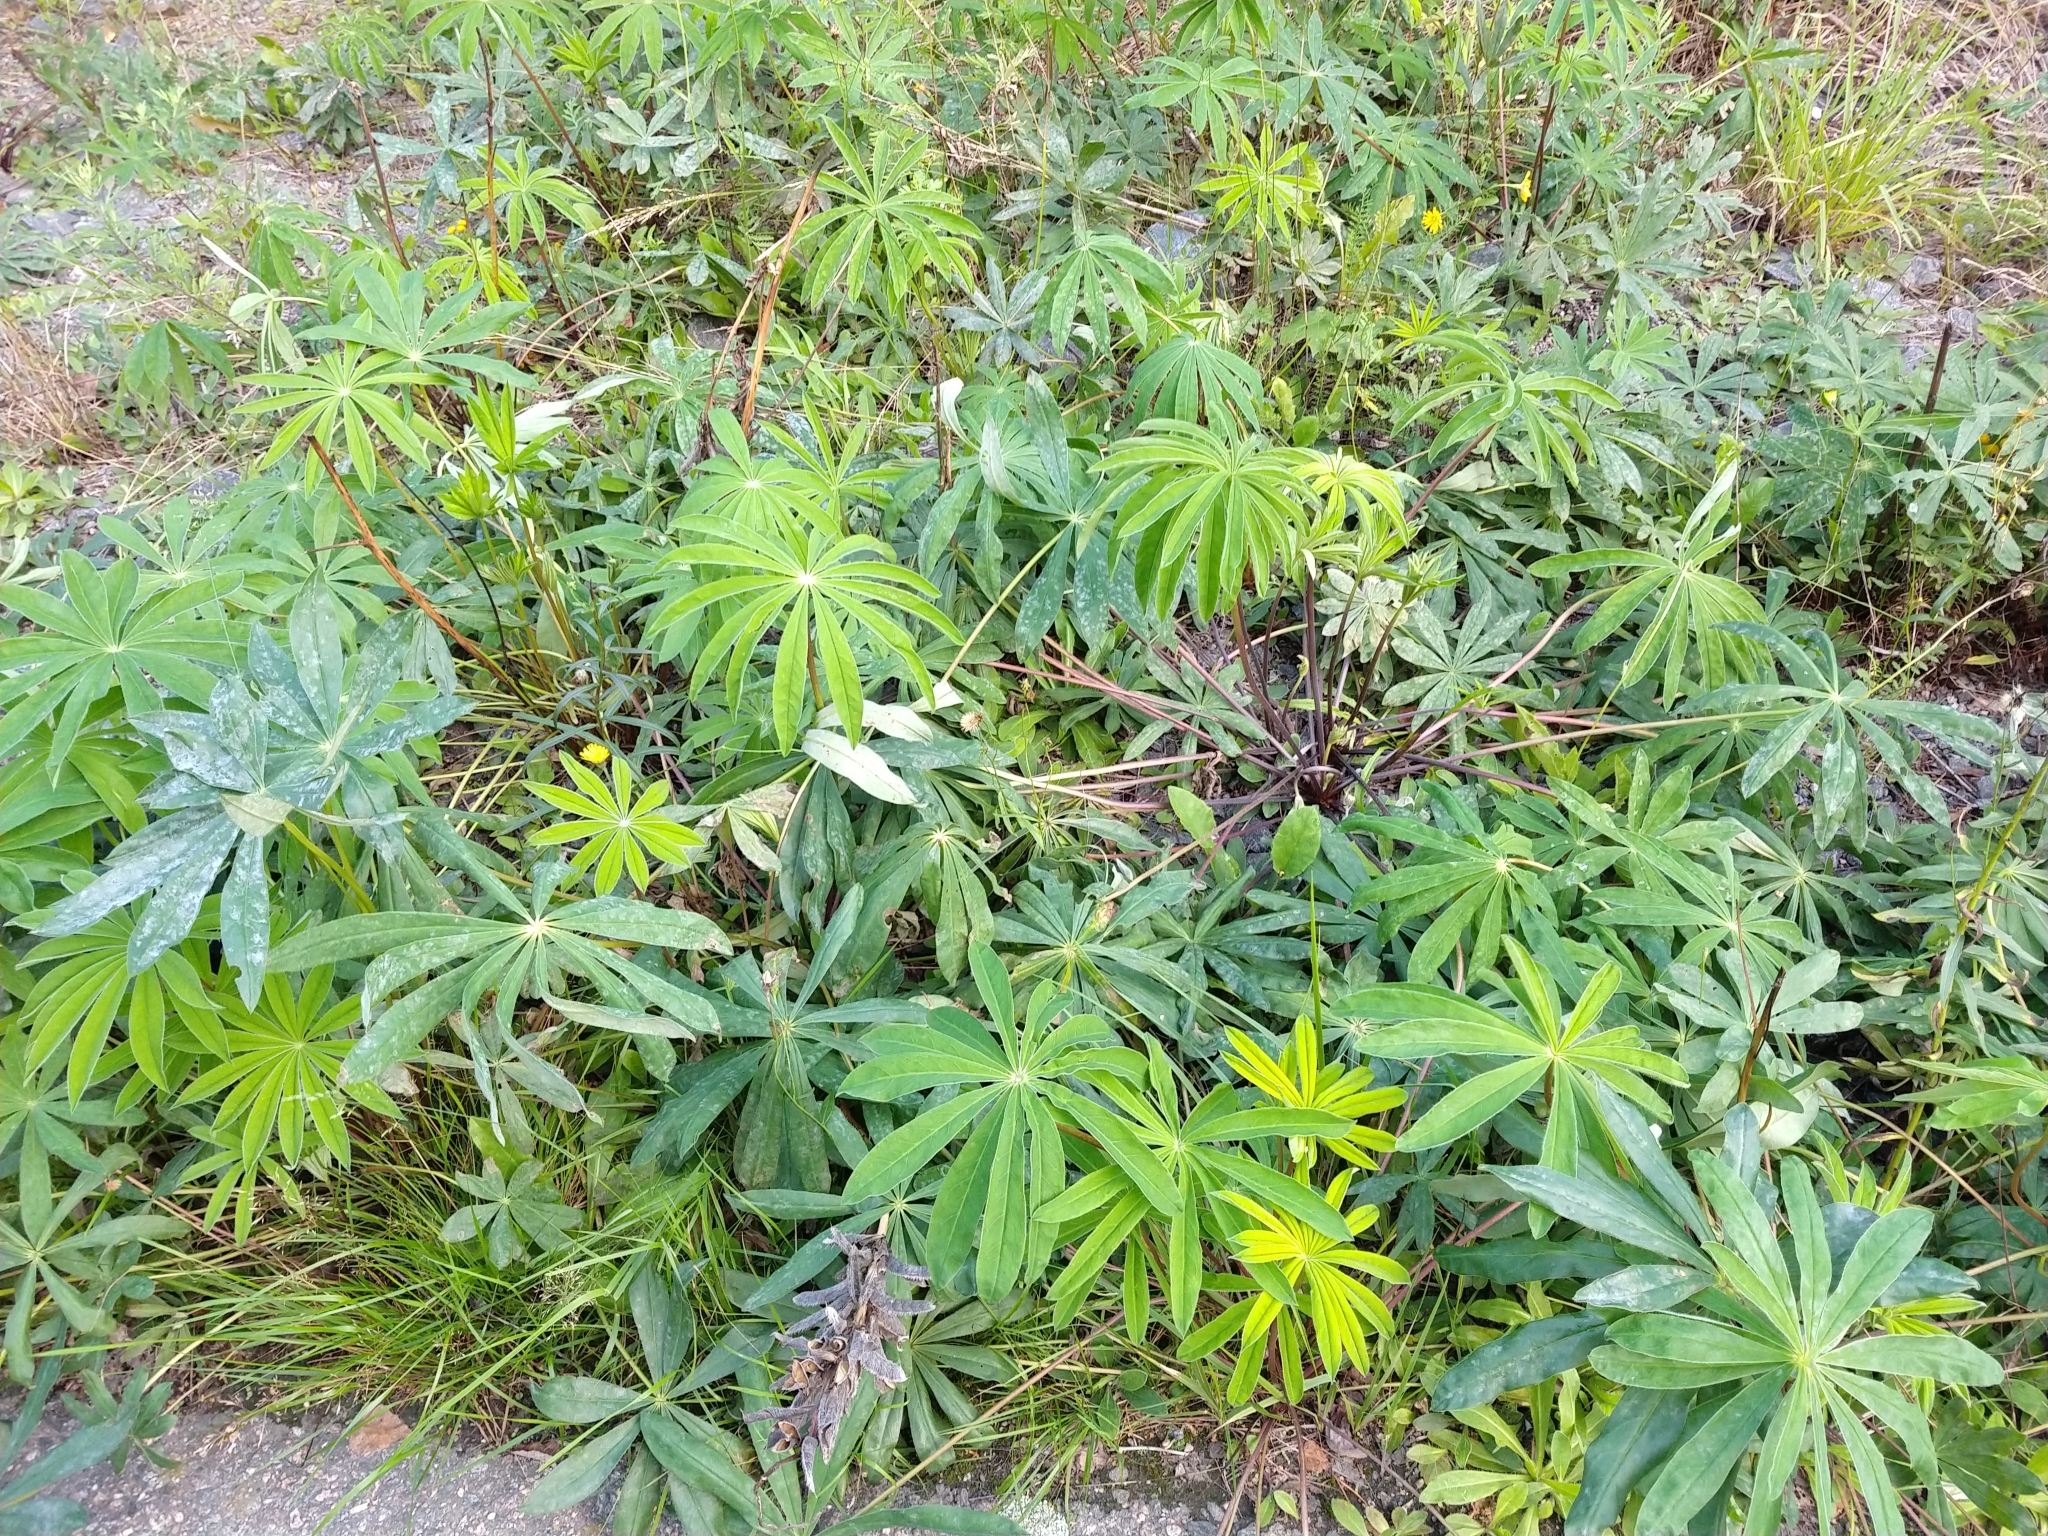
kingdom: Plantae
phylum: Tracheophyta
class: Magnoliopsida
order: Fabales
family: Fabaceae
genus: Lupinus
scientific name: Lupinus polyphyllus
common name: Garden lupin
